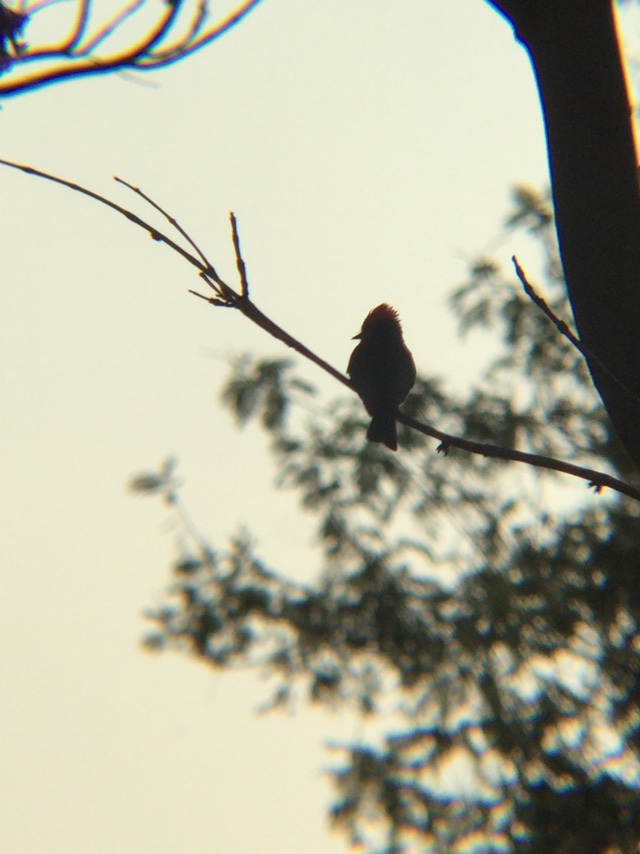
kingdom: Animalia
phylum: Chordata
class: Aves
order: Passeriformes
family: Tyrannidae
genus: Pyrocephalus
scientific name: Pyrocephalus rubinus
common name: Vermilion flycatcher
